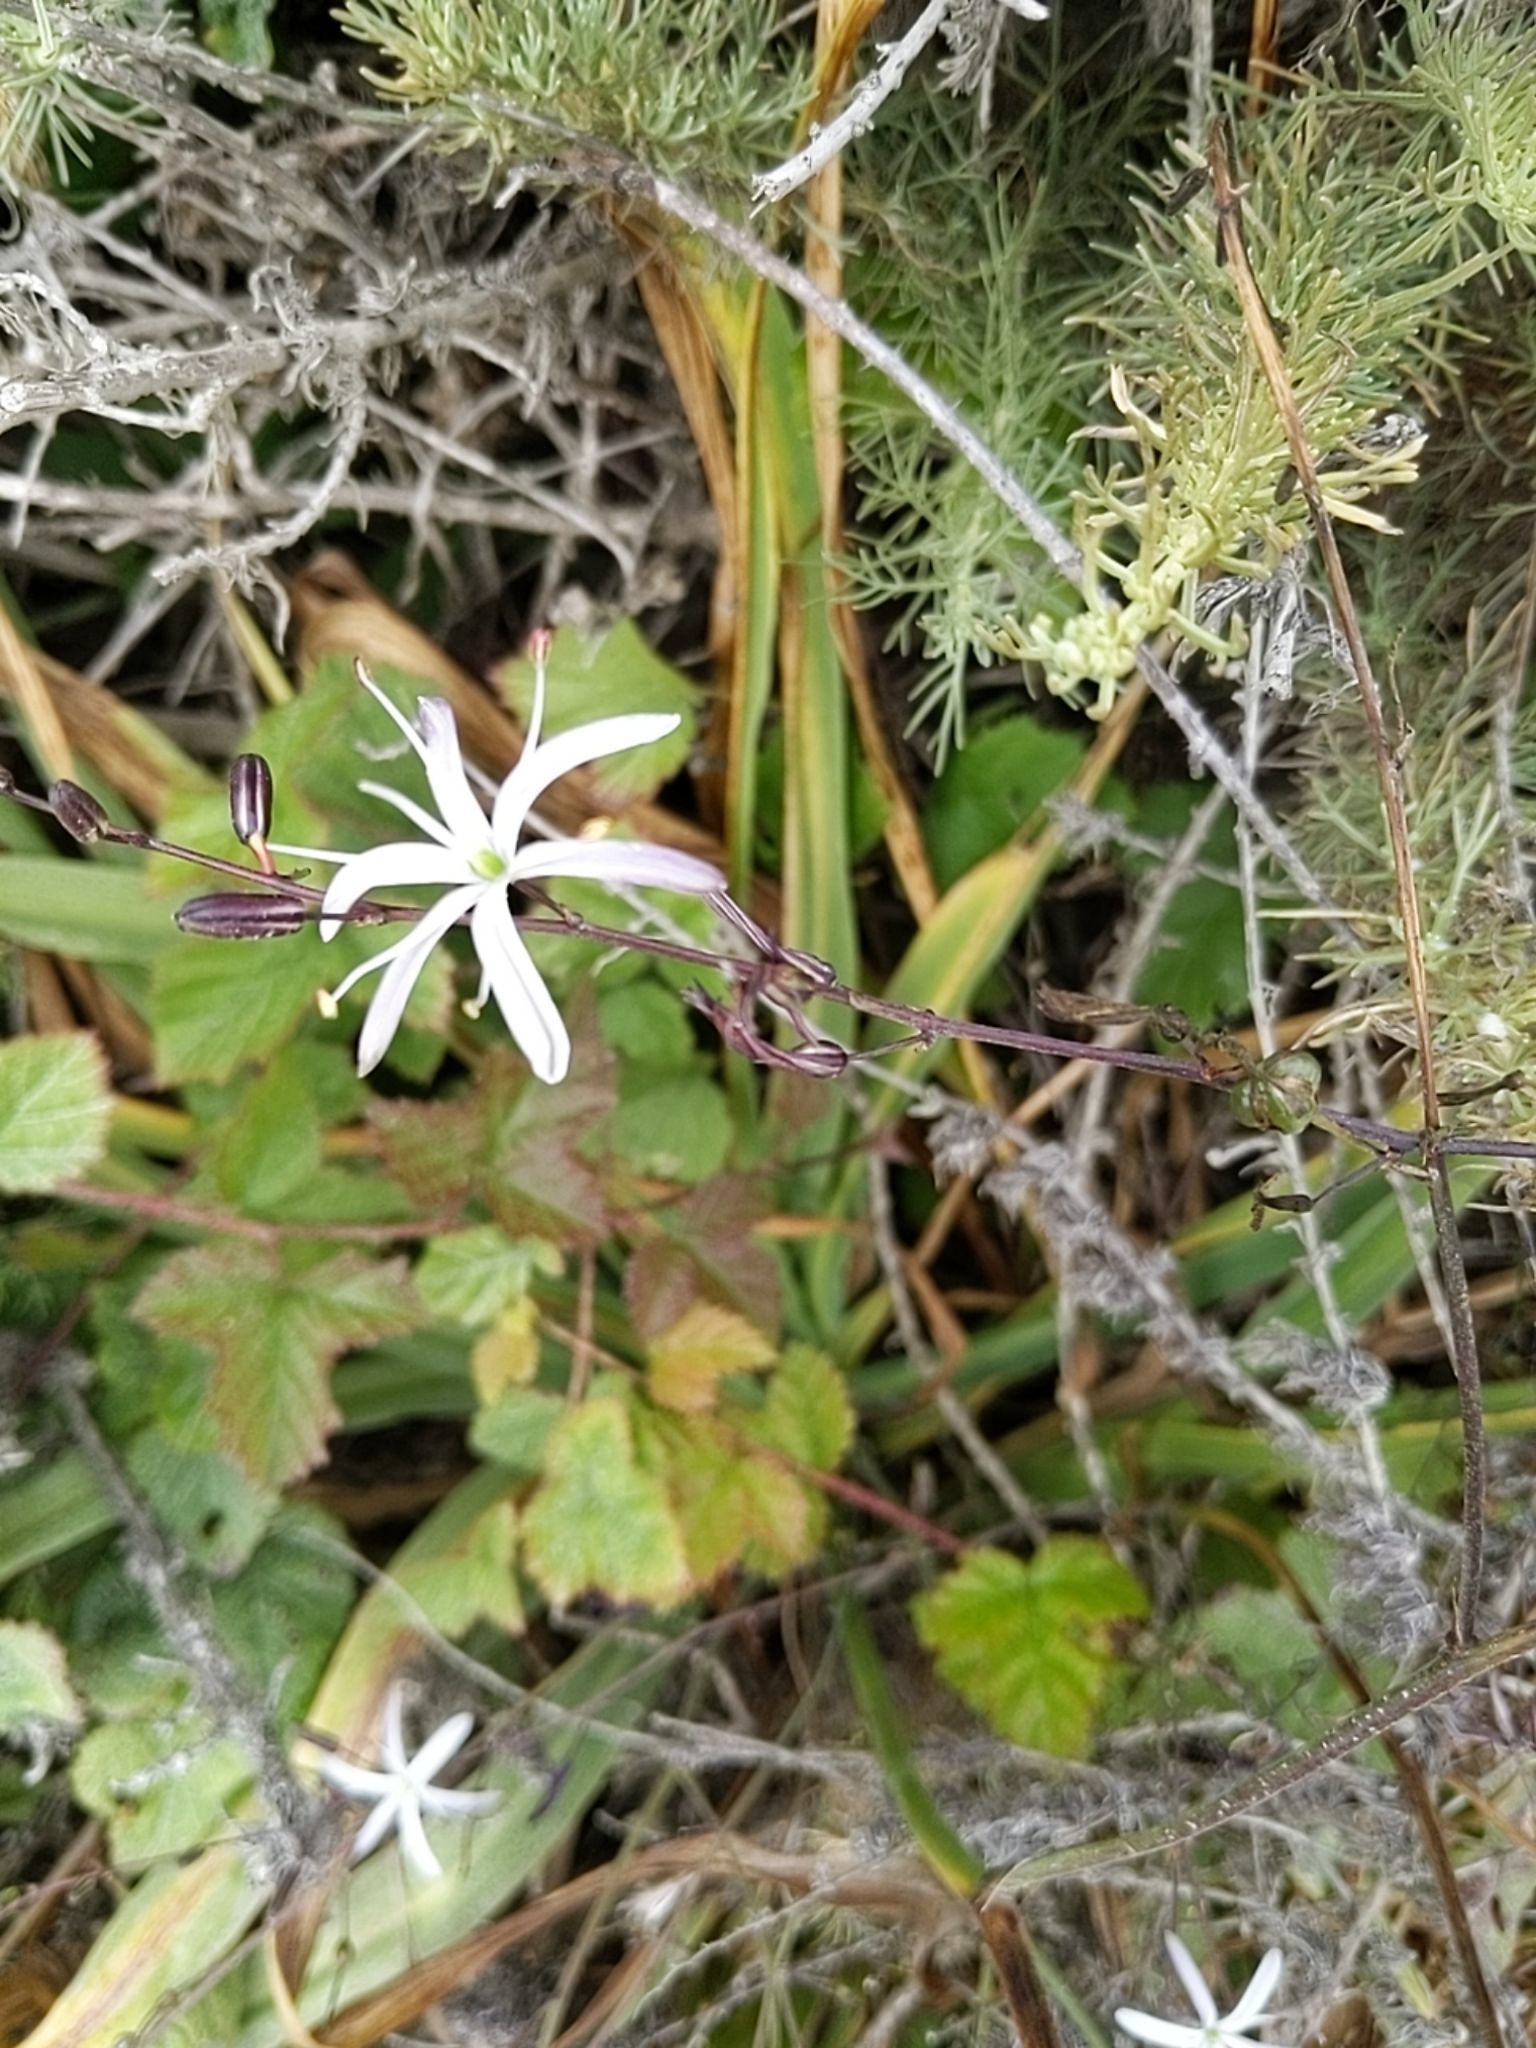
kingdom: Plantae
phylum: Tracheophyta
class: Liliopsida
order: Asparagales
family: Asparagaceae
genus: Chlorogalum
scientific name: Chlorogalum pomeridianum
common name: Amole
